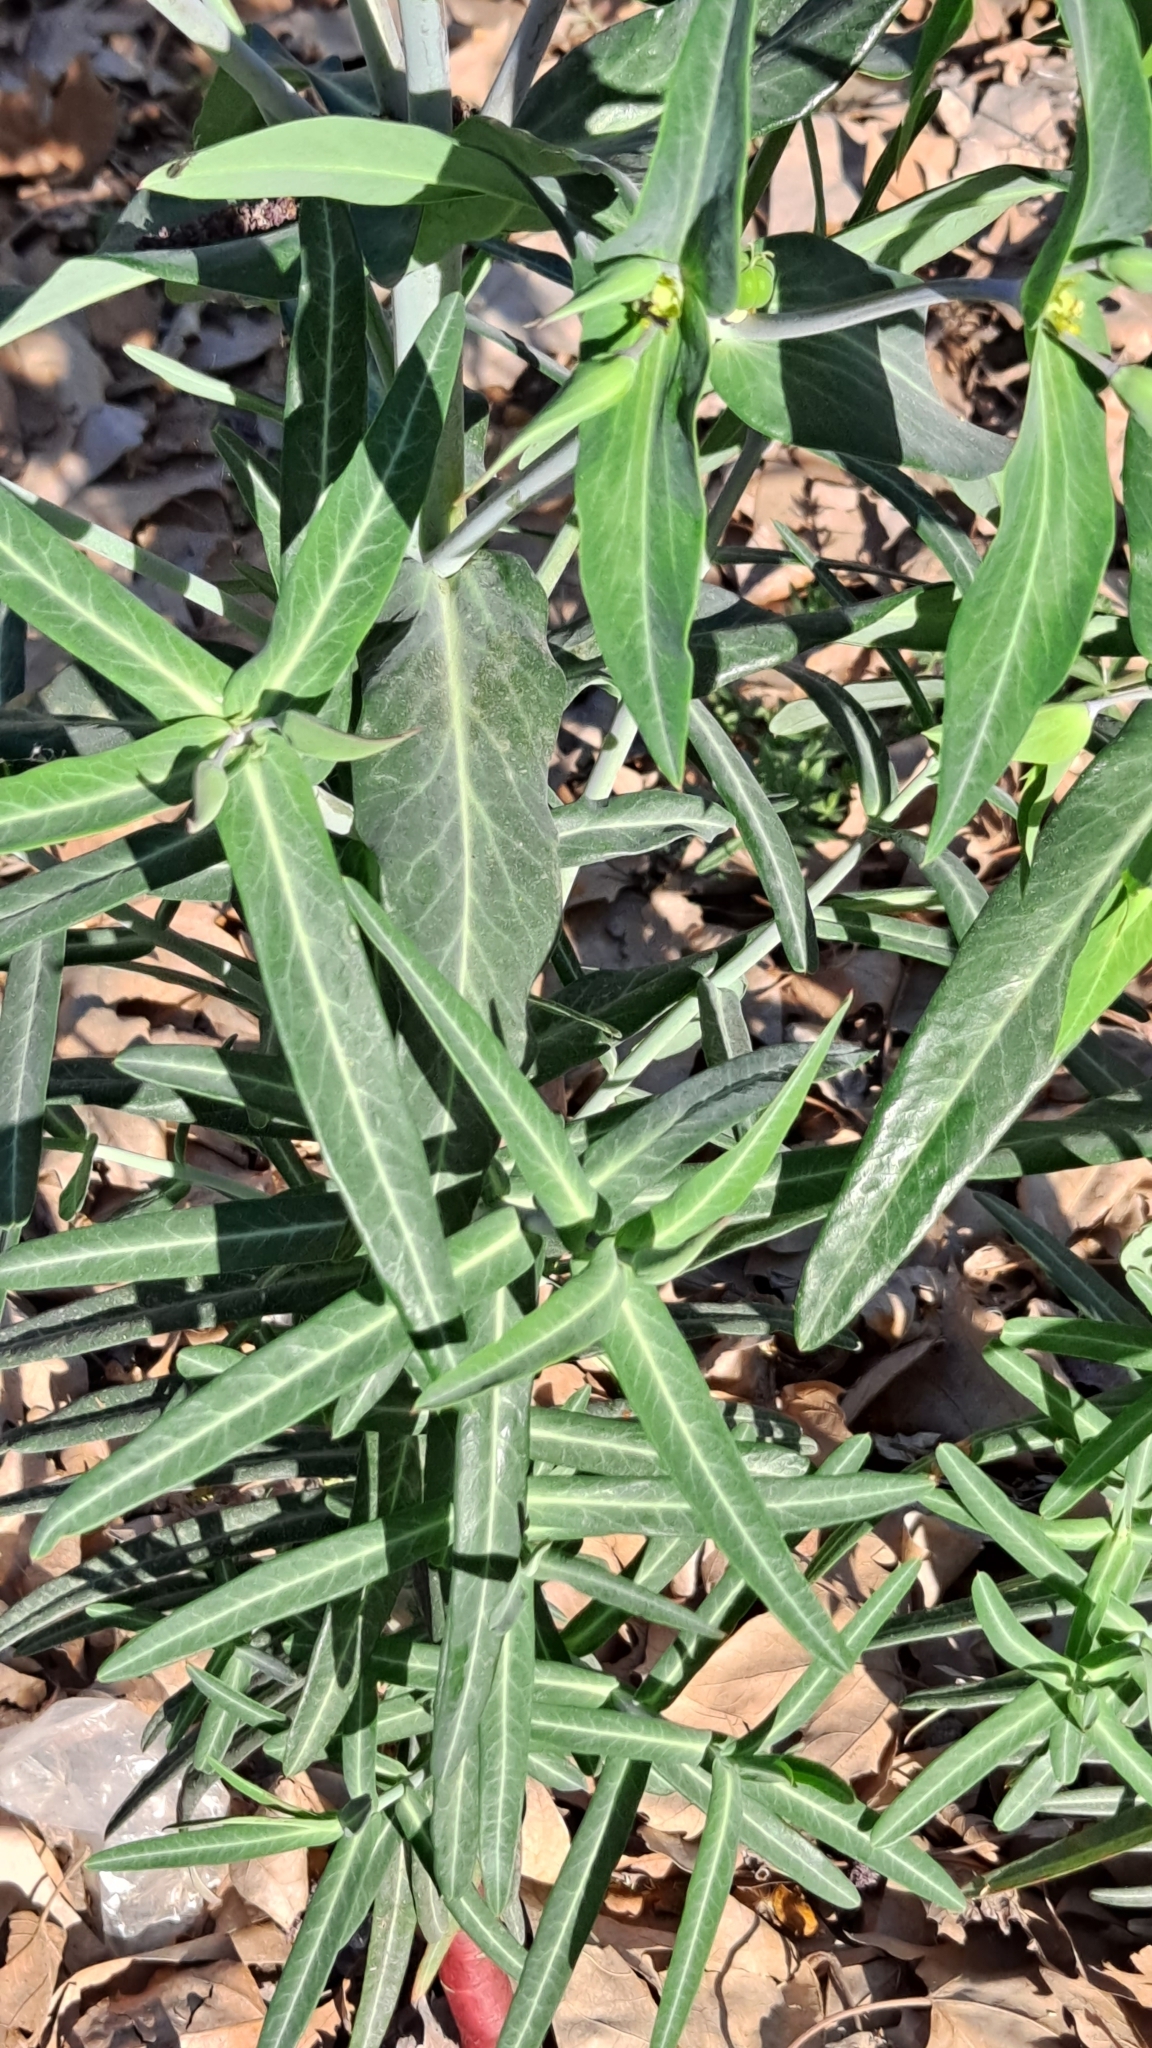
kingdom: Plantae
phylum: Tracheophyta
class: Magnoliopsida
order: Malpighiales
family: Euphorbiaceae
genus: Euphorbia
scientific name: Euphorbia lathyris
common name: Caper spurge
